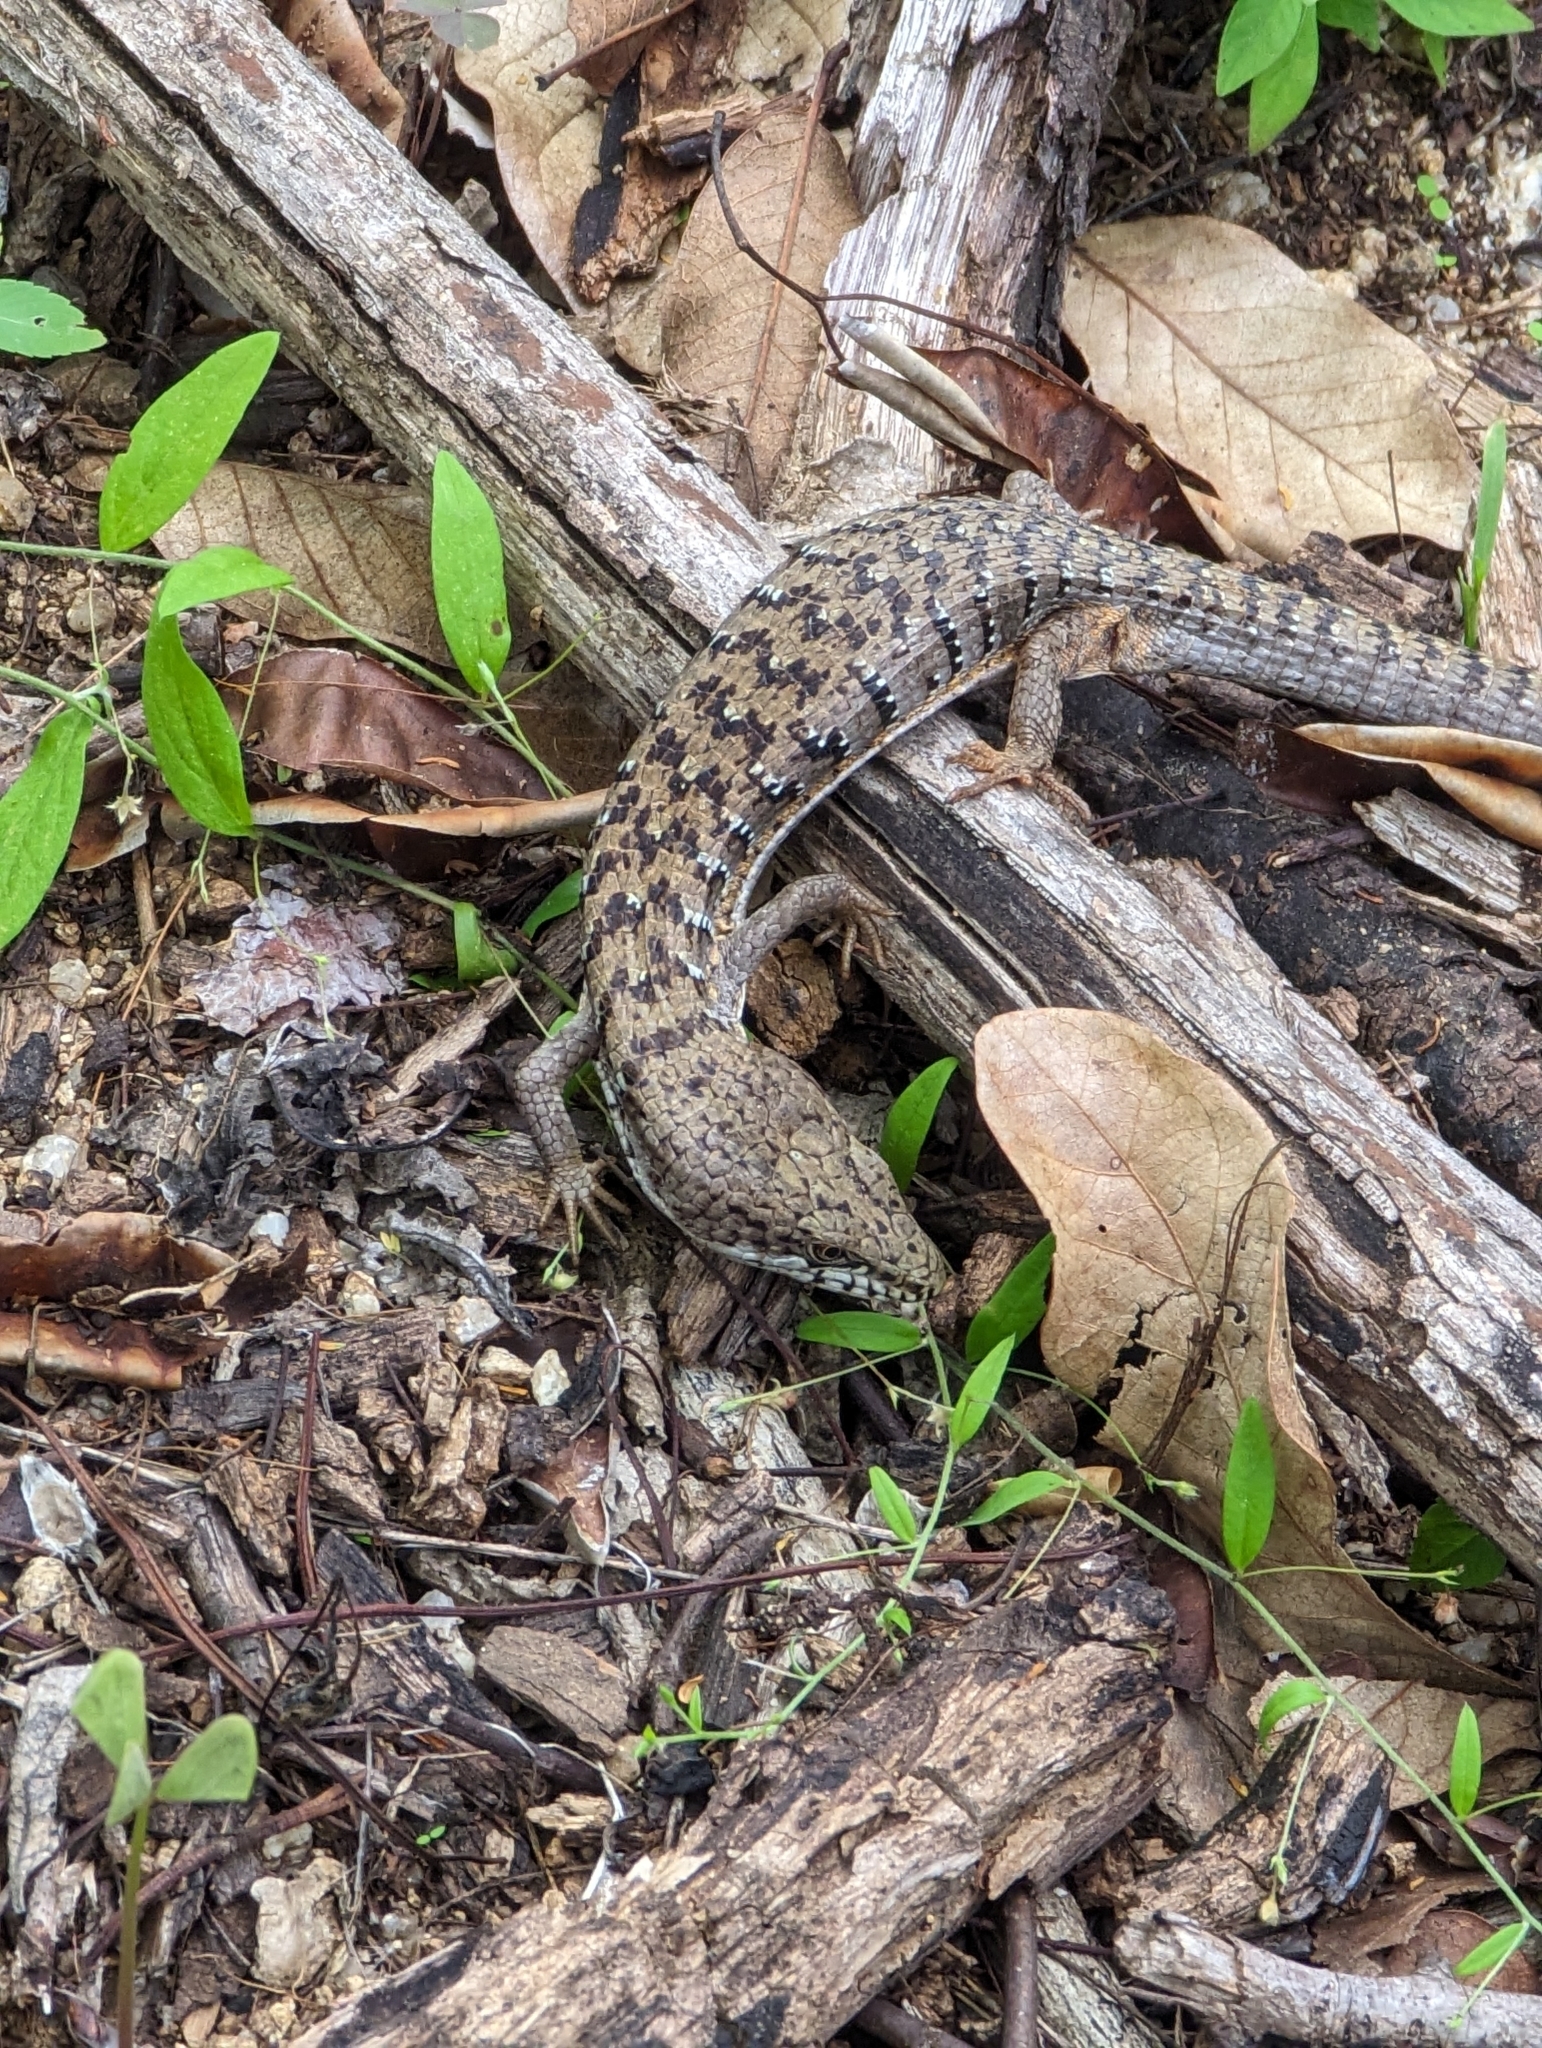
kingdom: Animalia
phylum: Chordata
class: Squamata
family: Anguidae
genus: Elgaria
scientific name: Elgaria paucicarinata
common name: San lucan alligator lizard
